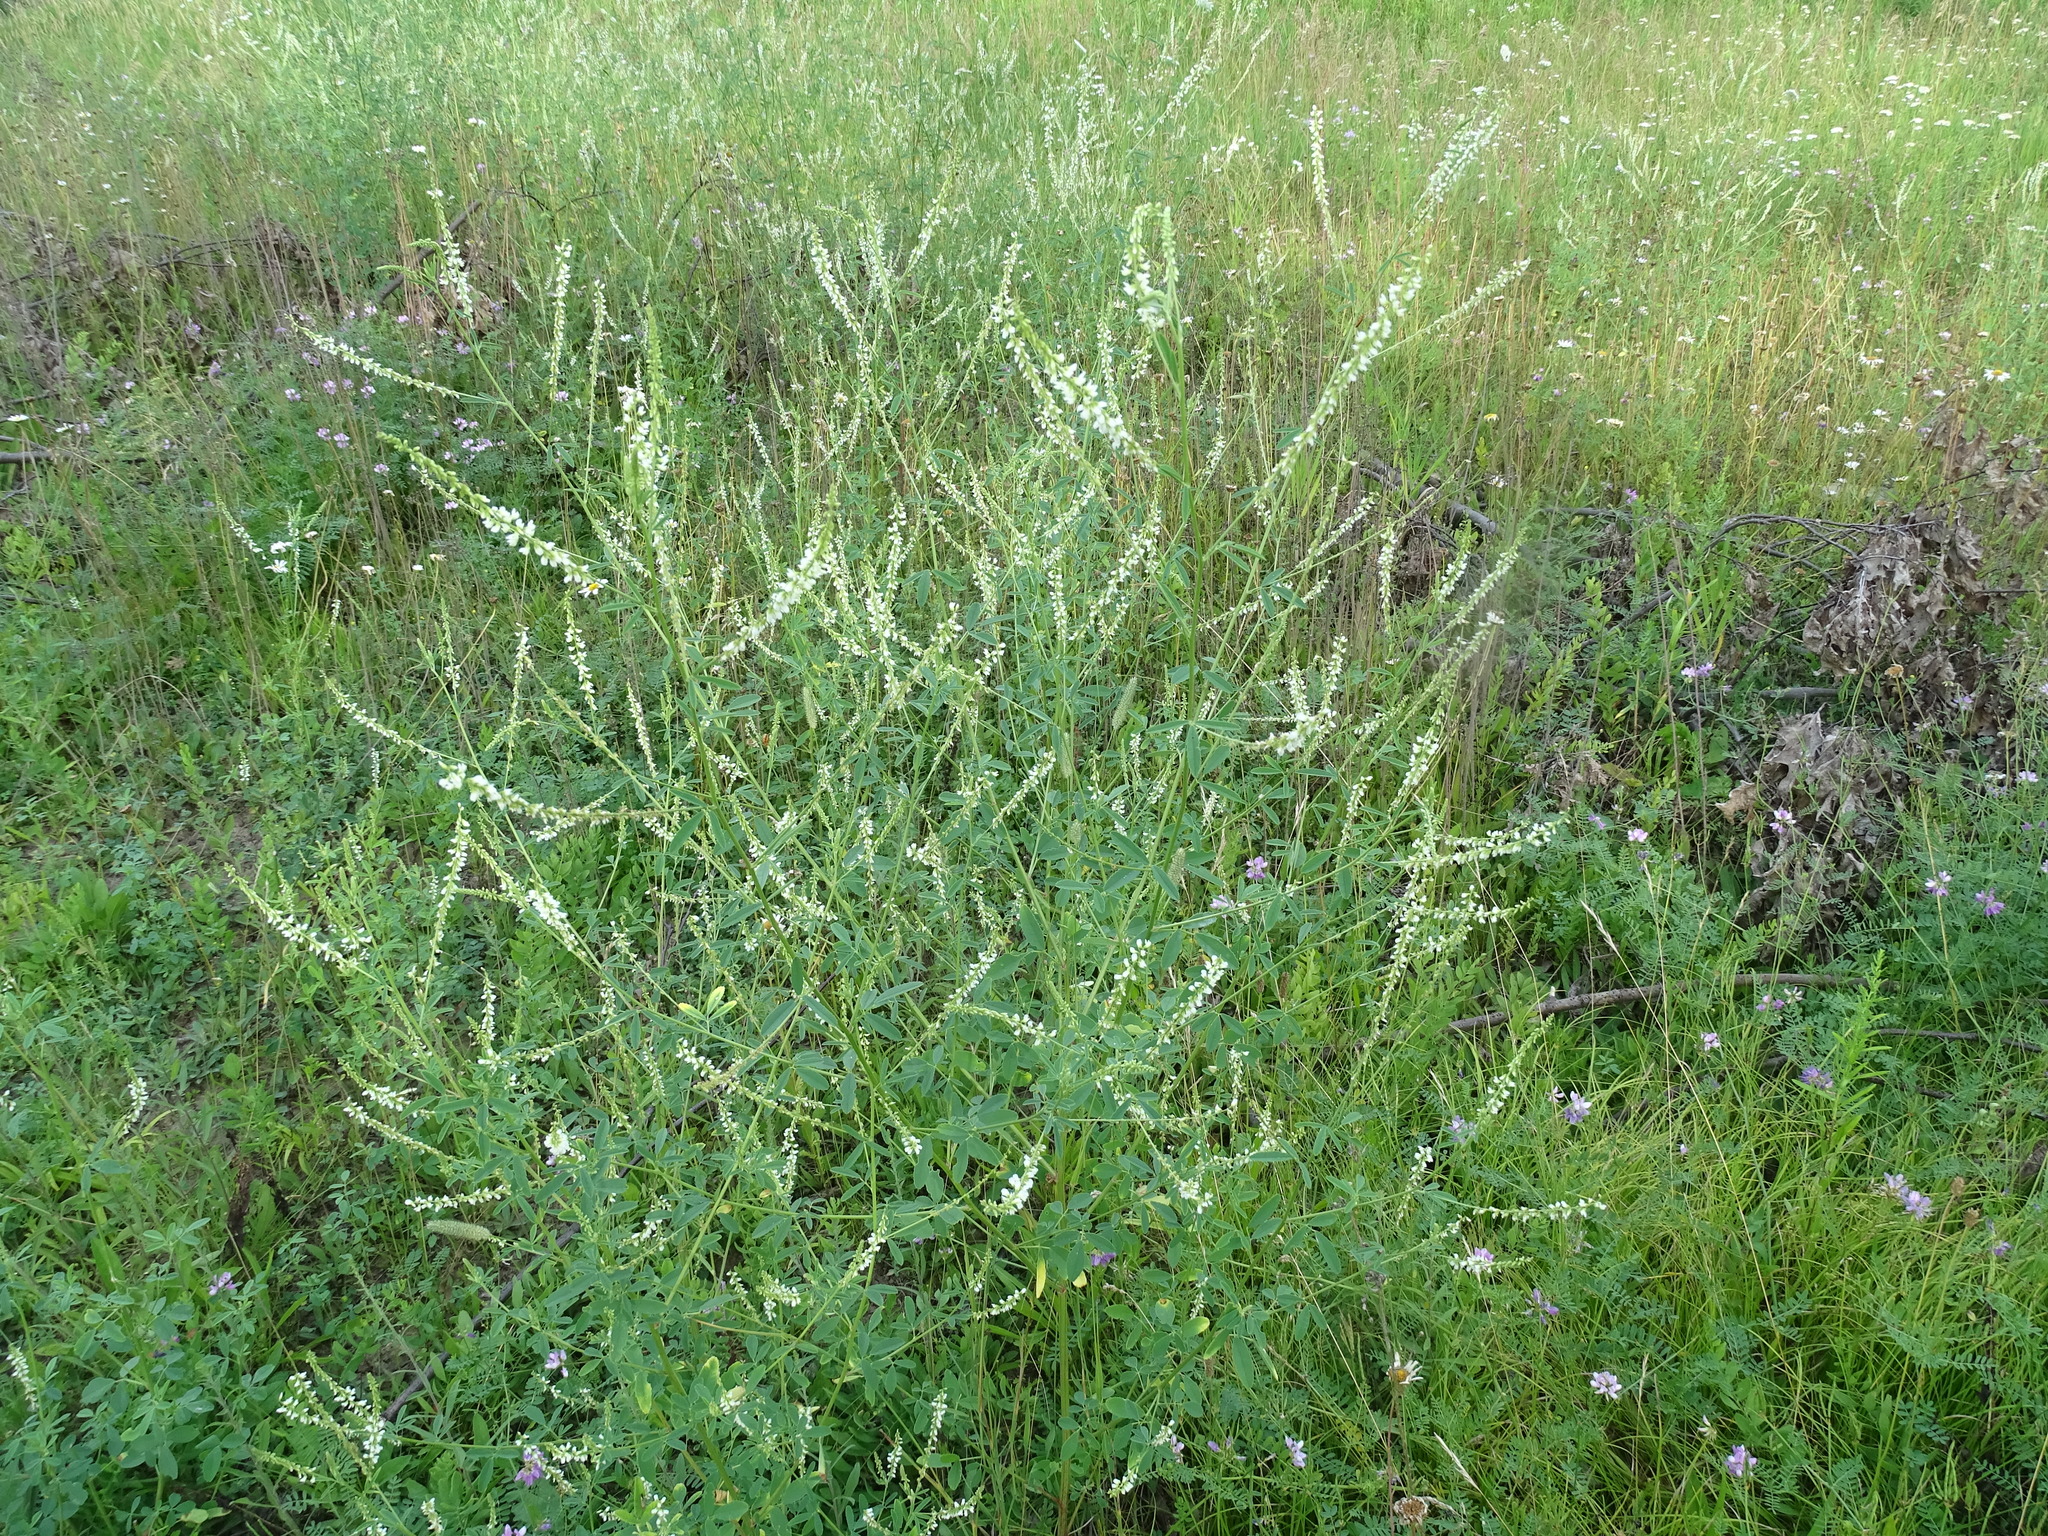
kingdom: Plantae
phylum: Tracheophyta
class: Magnoliopsida
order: Fabales
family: Fabaceae
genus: Melilotus
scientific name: Melilotus albus
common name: White melilot
